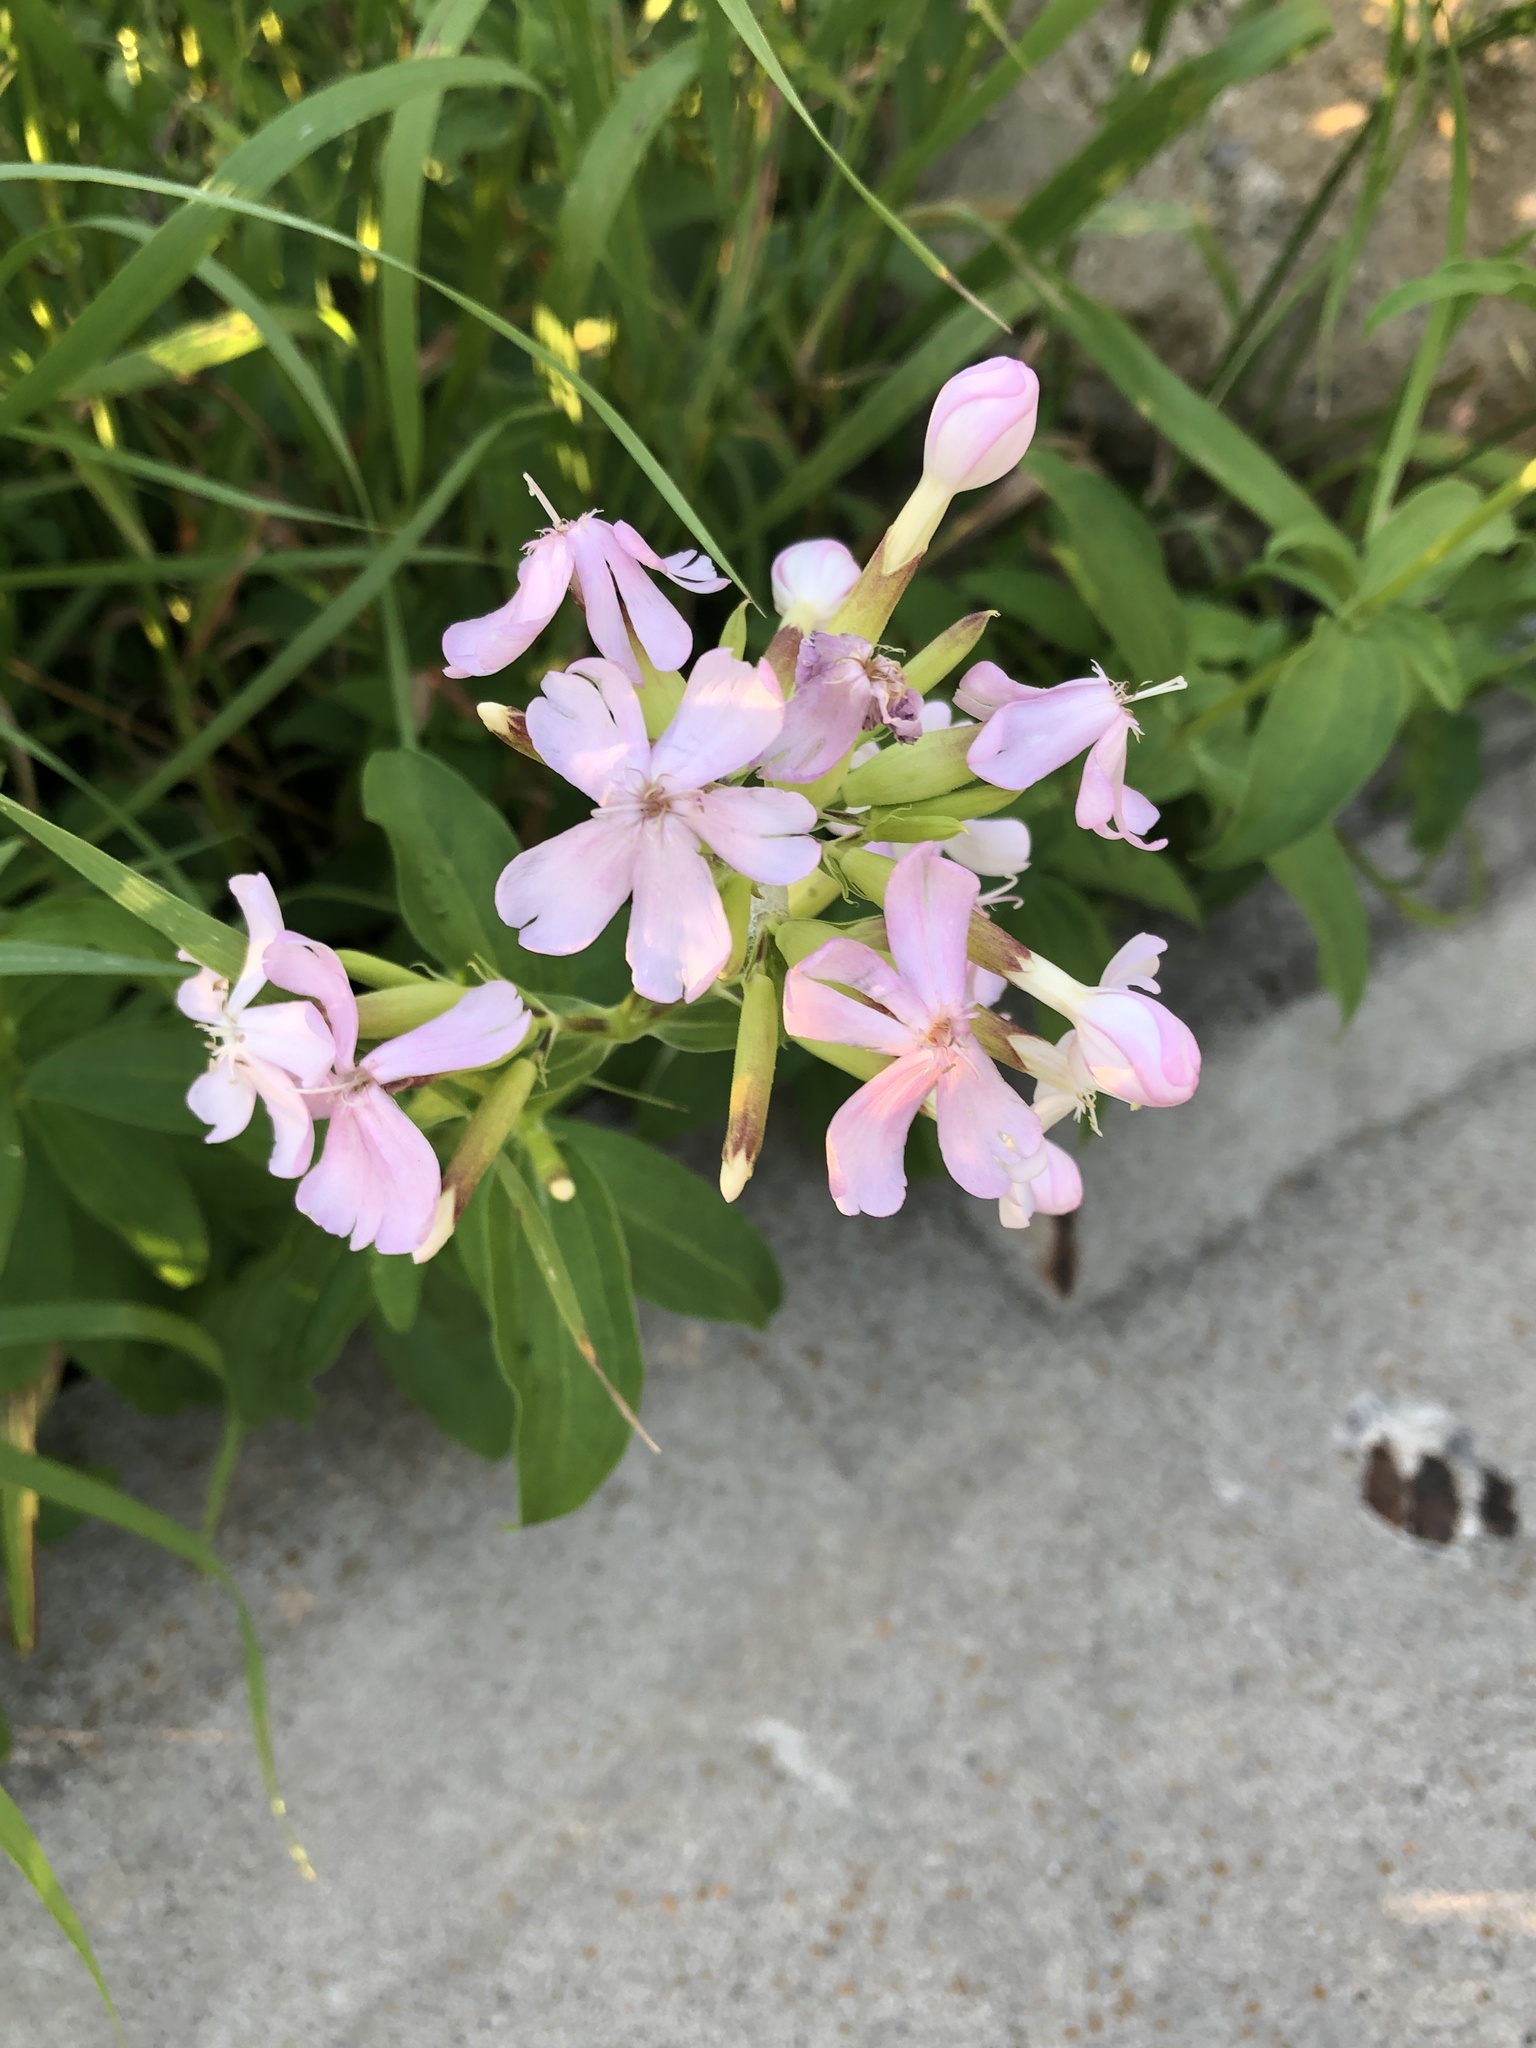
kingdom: Plantae
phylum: Tracheophyta
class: Magnoliopsida
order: Caryophyllales
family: Caryophyllaceae
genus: Saponaria
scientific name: Saponaria officinalis
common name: Soapwort
